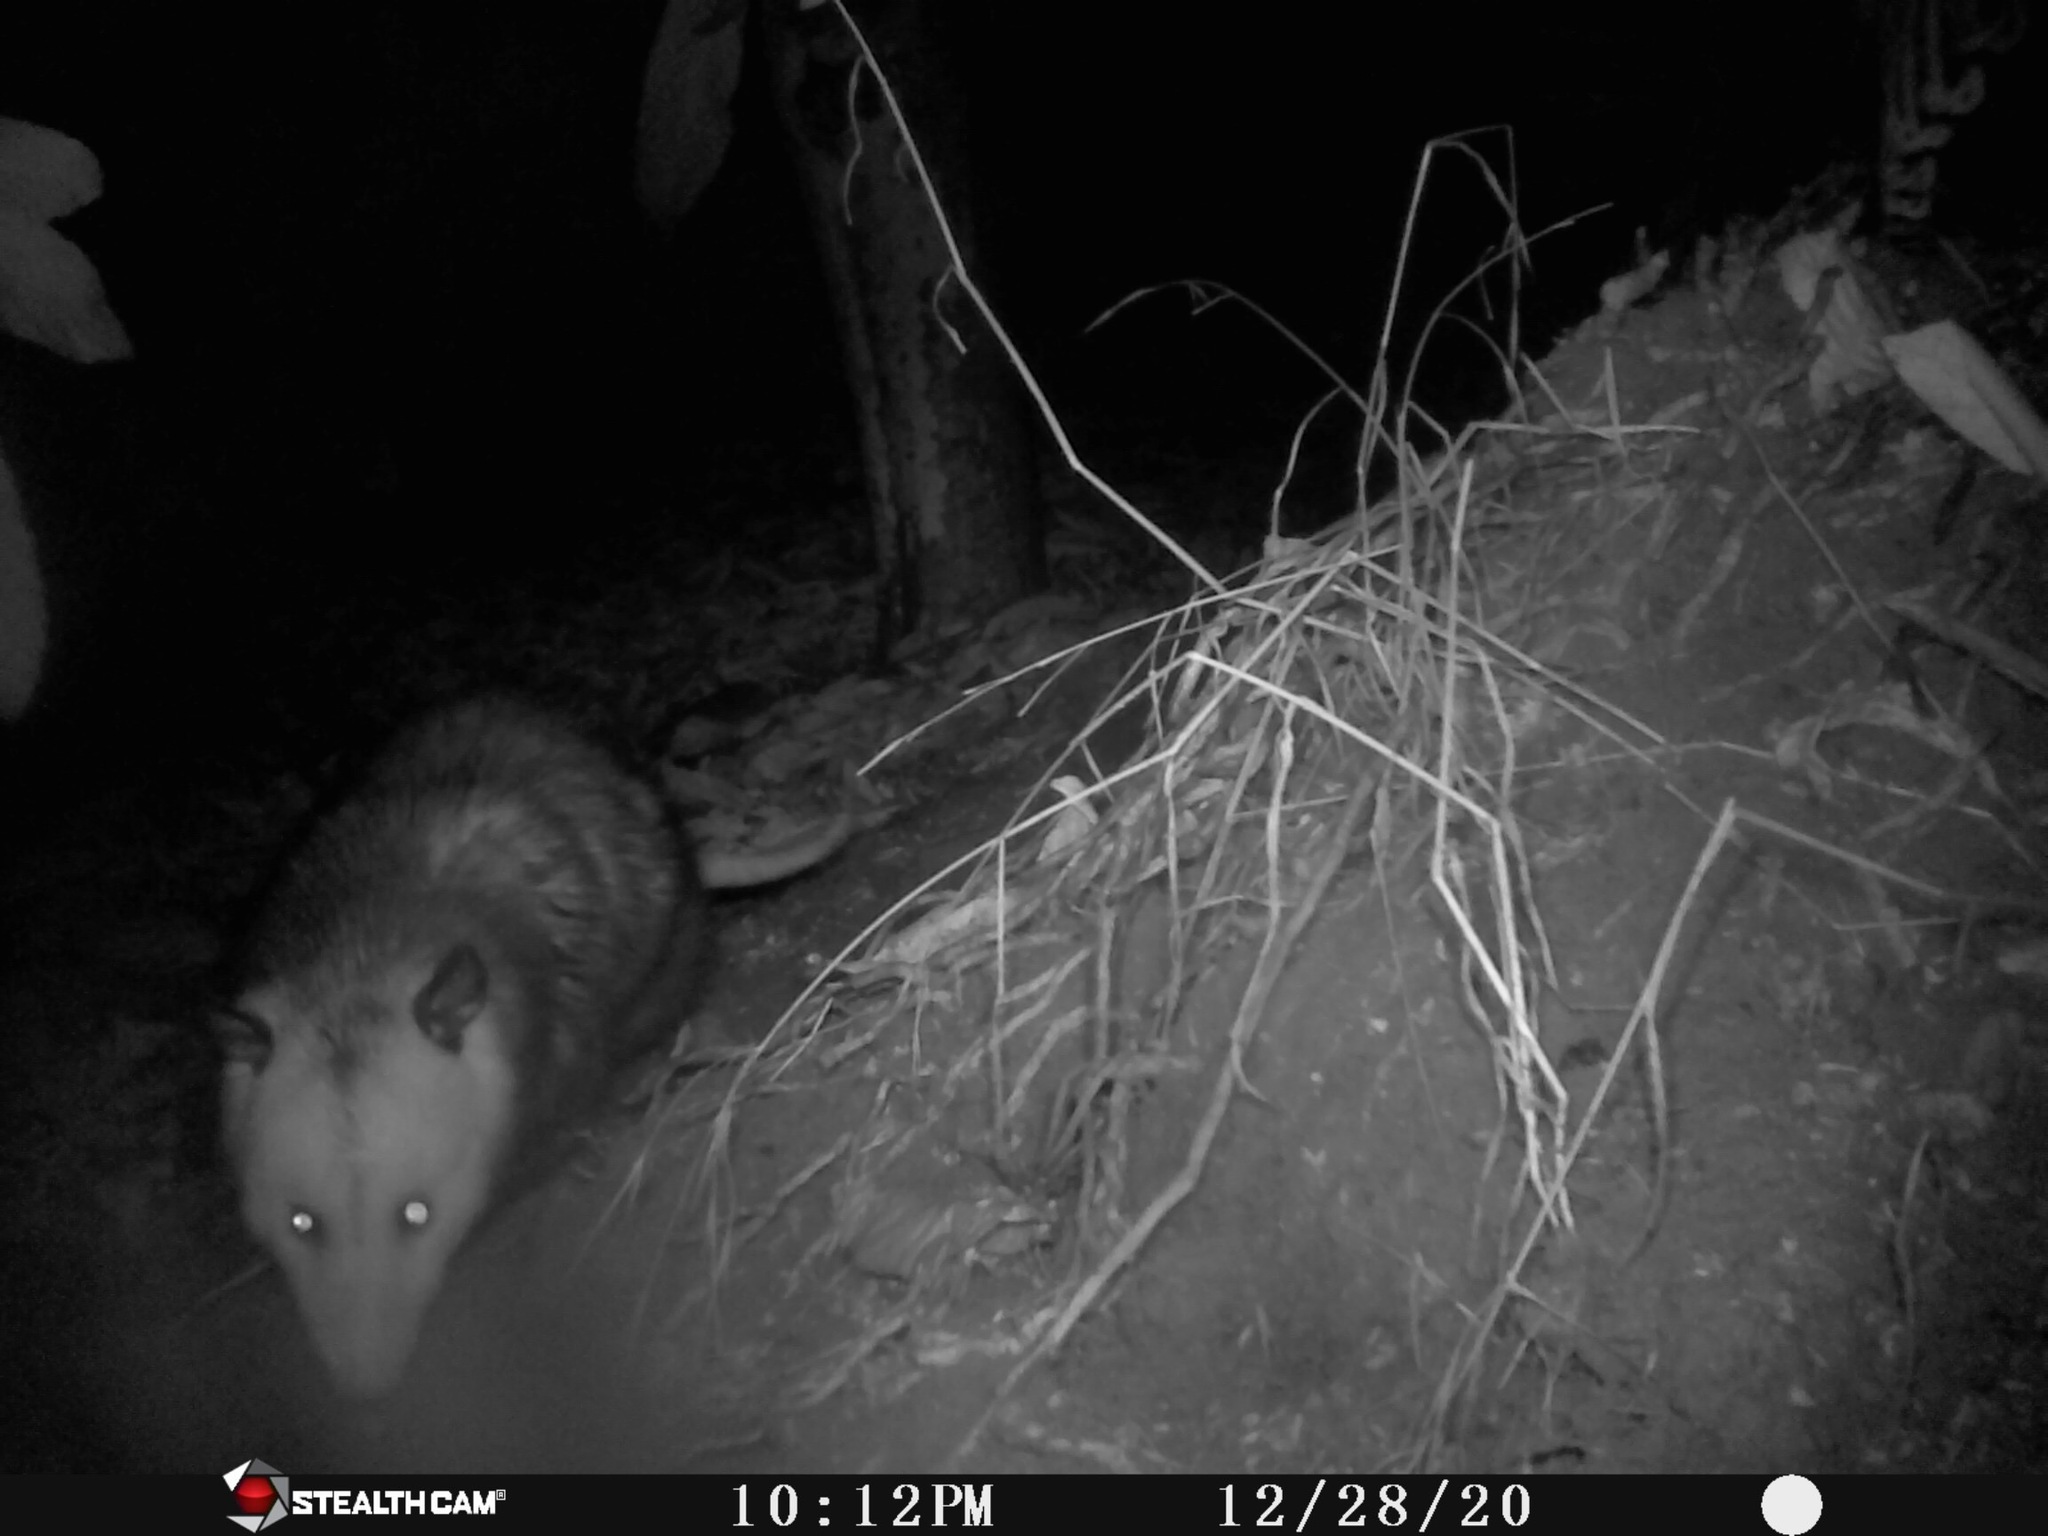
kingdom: Animalia
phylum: Chordata
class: Mammalia
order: Didelphimorphia
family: Didelphidae
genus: Didelphis
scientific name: Didelphis virginiana
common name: Virginia opossum
